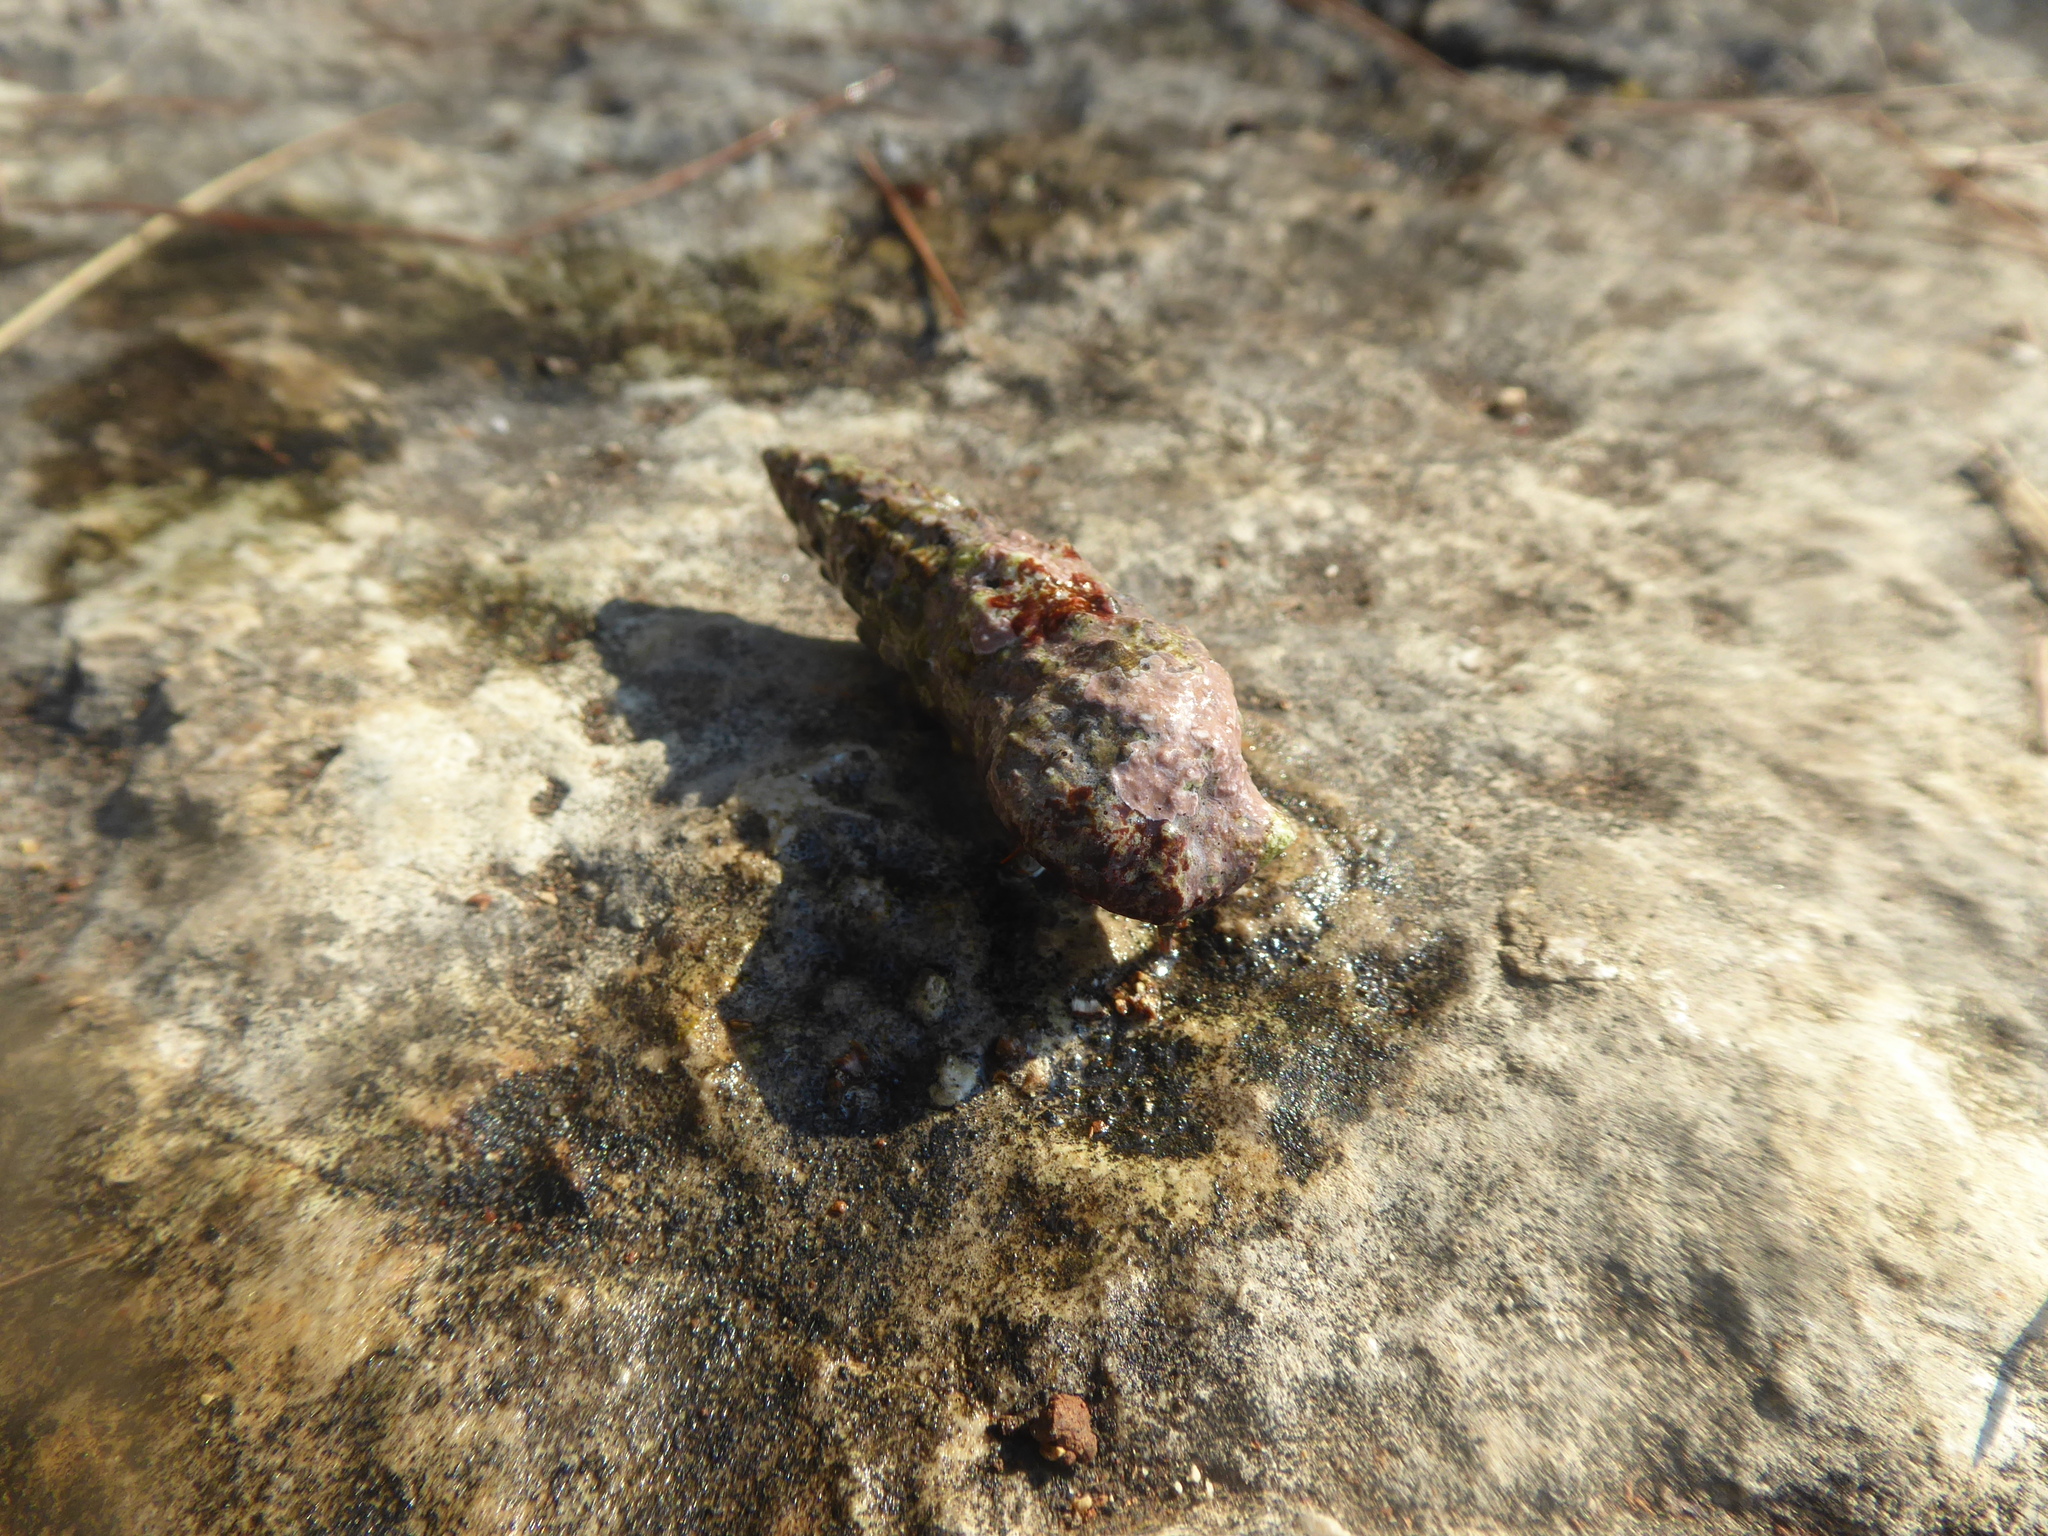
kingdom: Animalia
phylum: Arthropoda
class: Malacostraca
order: Decapoda
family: Diogenidae
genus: Clibanarius
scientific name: Clibanarius erythropus
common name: Hermit crab
